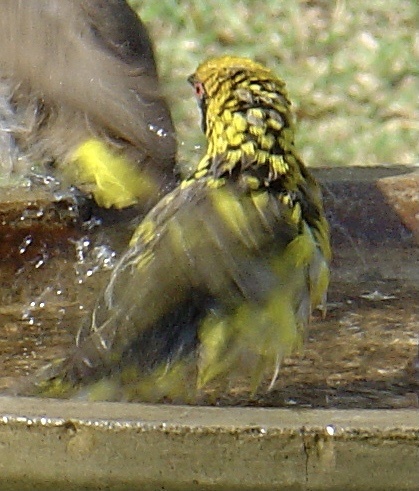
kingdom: Animalia
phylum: Chordata
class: Aves
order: Passeriformes
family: Ploceidae
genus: Ploceus
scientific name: Ploceus cucullatus
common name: Village weaver
